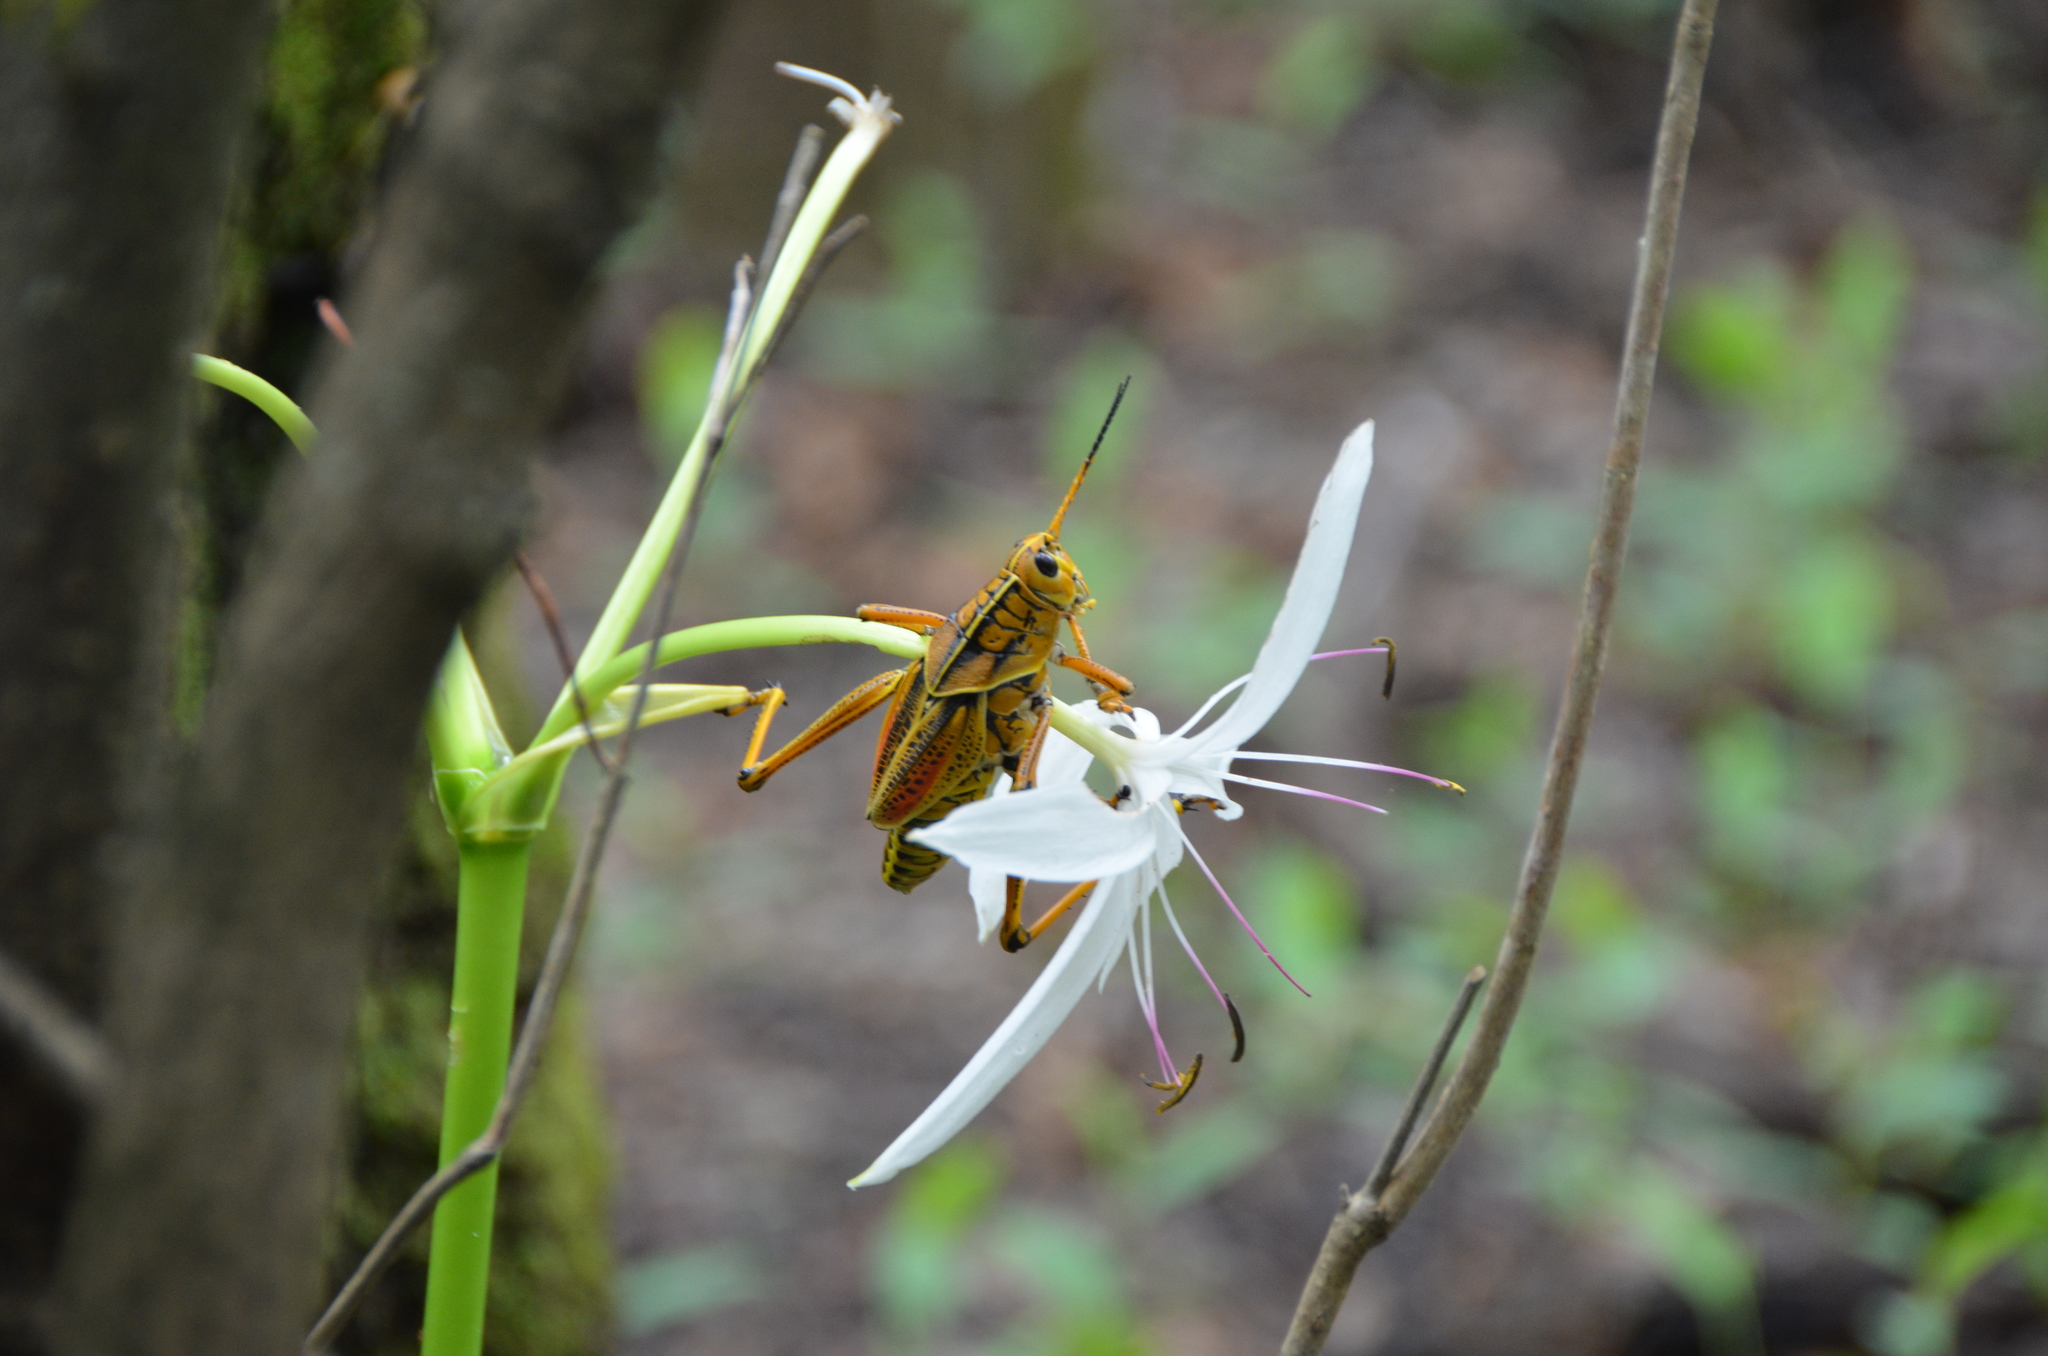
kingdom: Animalia
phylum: Arthropoda
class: Insecta
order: Orthoptera
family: Romaleidae
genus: Romalea
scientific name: Romalea microptera
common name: Eastern lubber grasshopper
